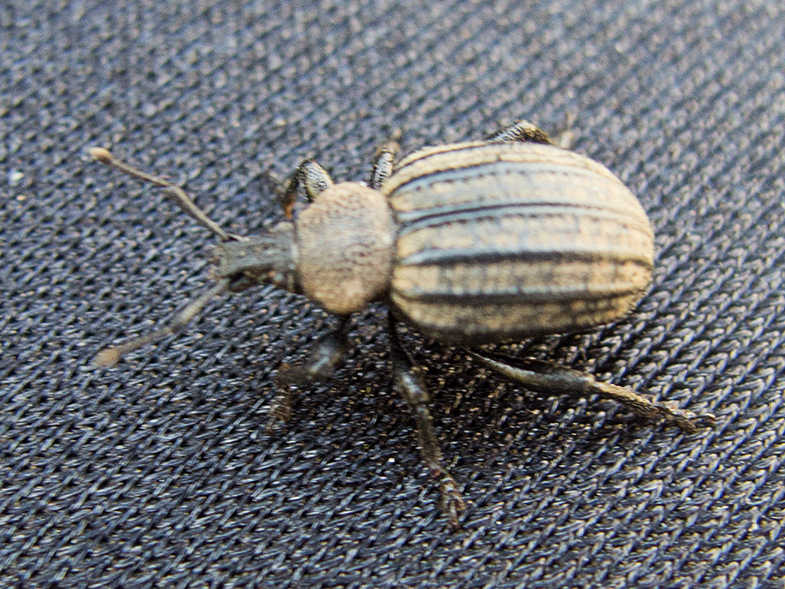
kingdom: Animalia
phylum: Arthropoda
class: Insecta
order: Coleoptera
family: Curculionidae
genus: Otiorhynchus
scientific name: Otiorhynchus bicostatus
